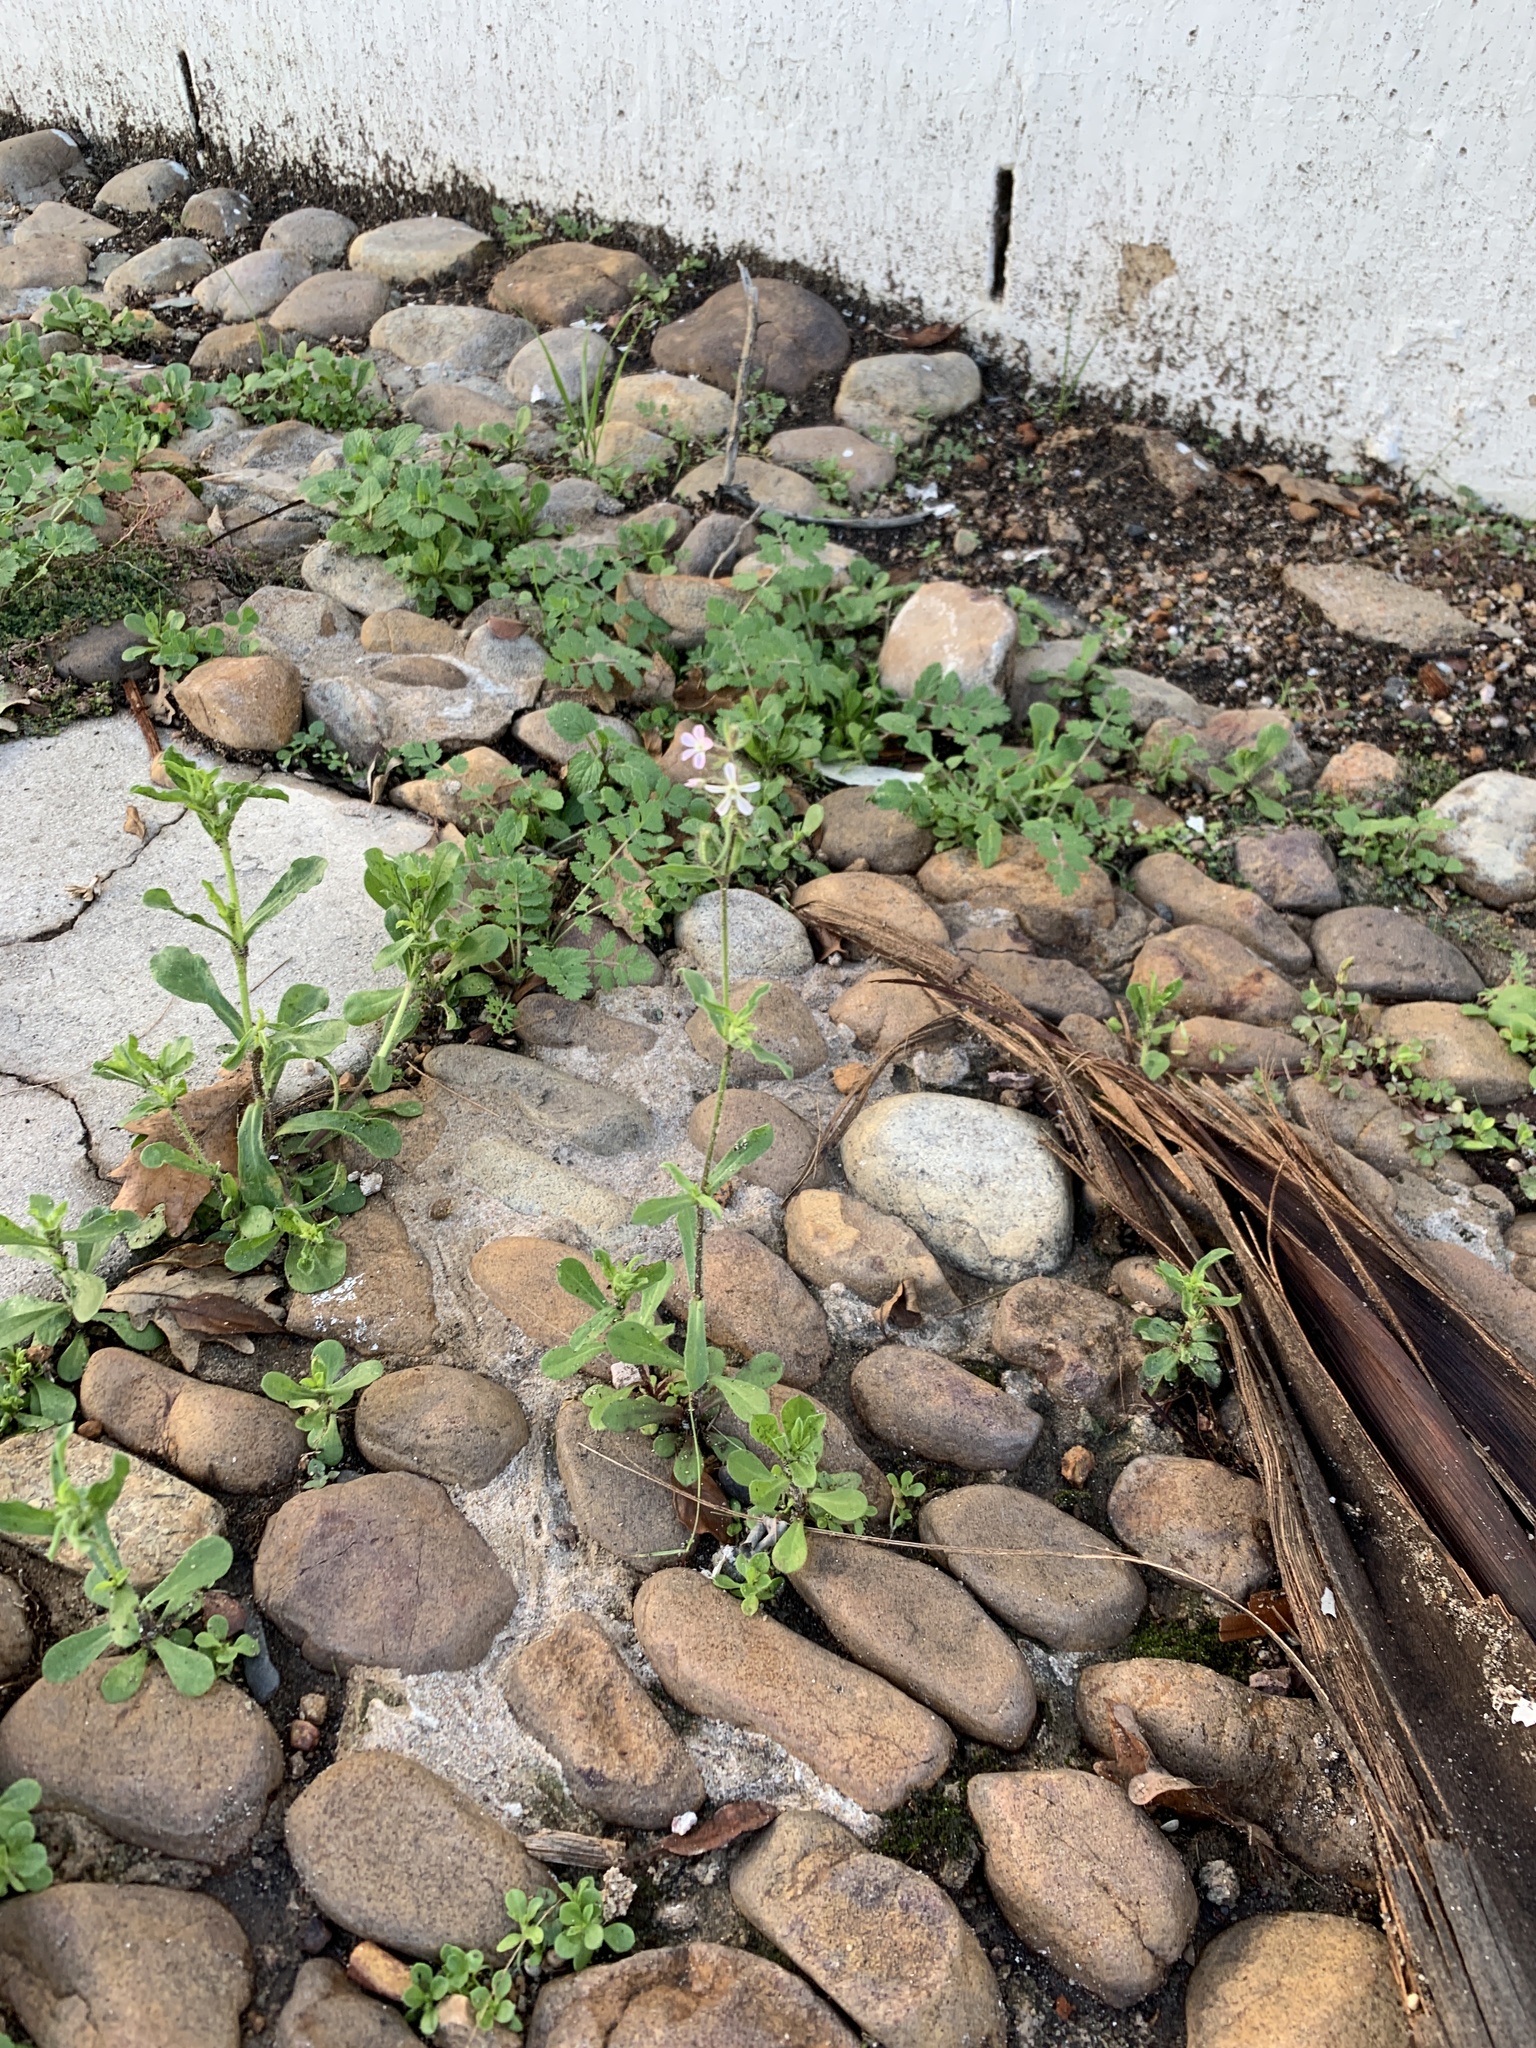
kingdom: Plantae
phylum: Tracheophyta
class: Magnoliopsida
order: Caryophyllales
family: Caryophyllaceae
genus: Silene
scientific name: Silene gallica
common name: Small-flowered catchfly
